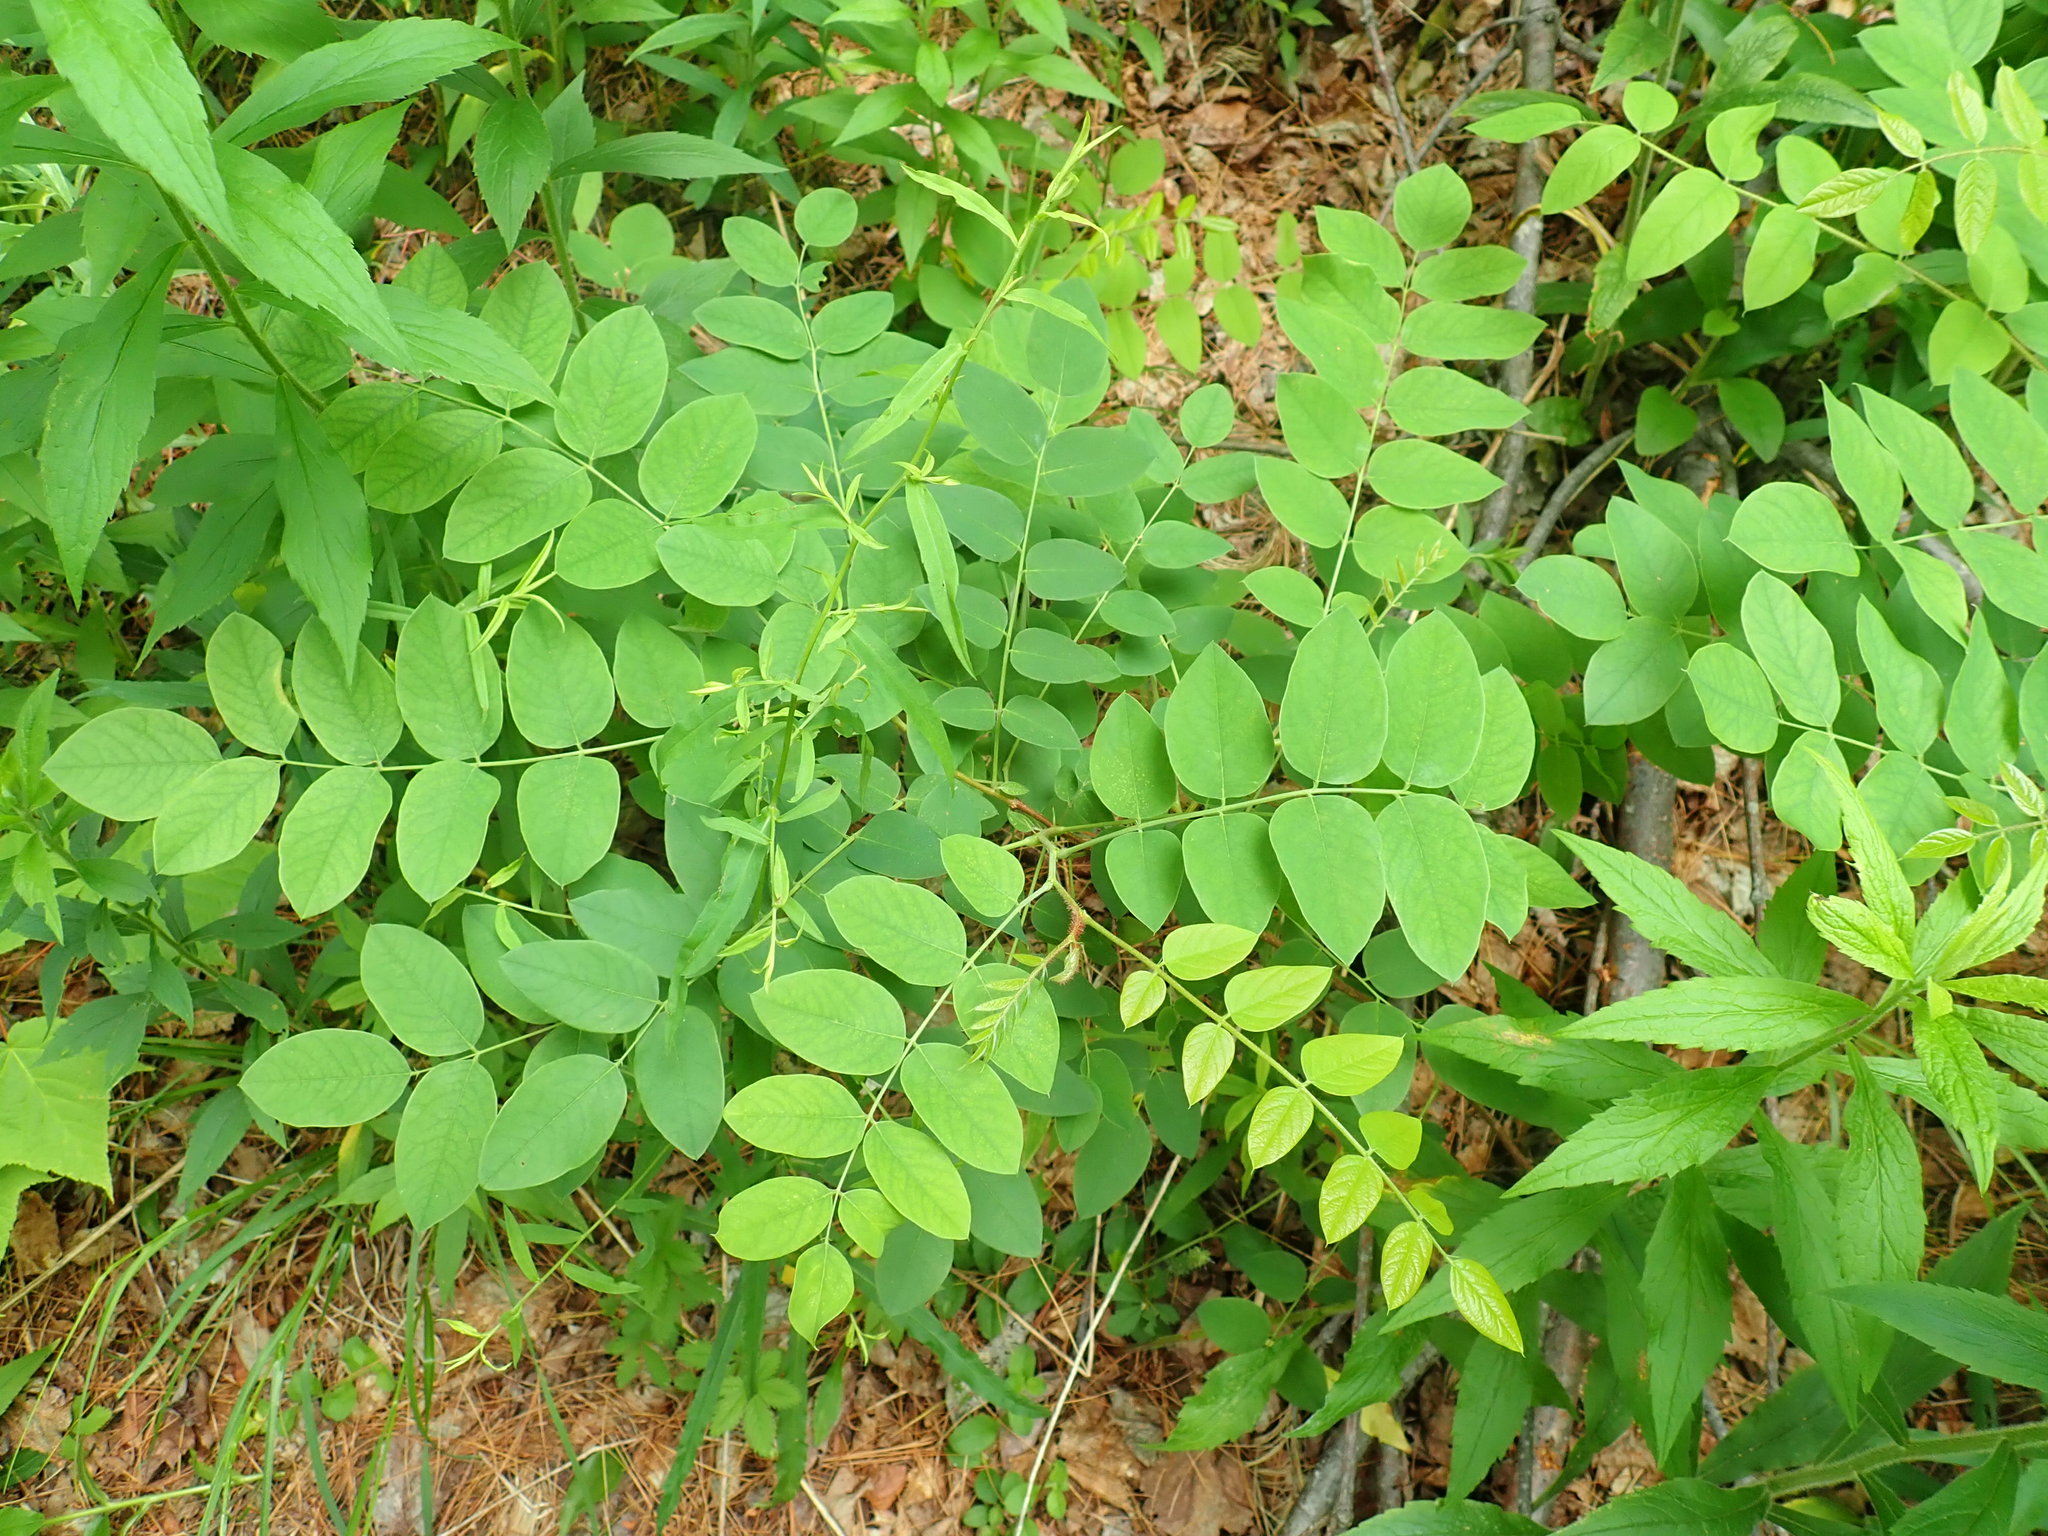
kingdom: Plantae
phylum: Tracheophyta
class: Magnoliopsida
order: Fabales
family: Fabaceae
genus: Robinia
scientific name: Robinia hispida
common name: Bristly locust
